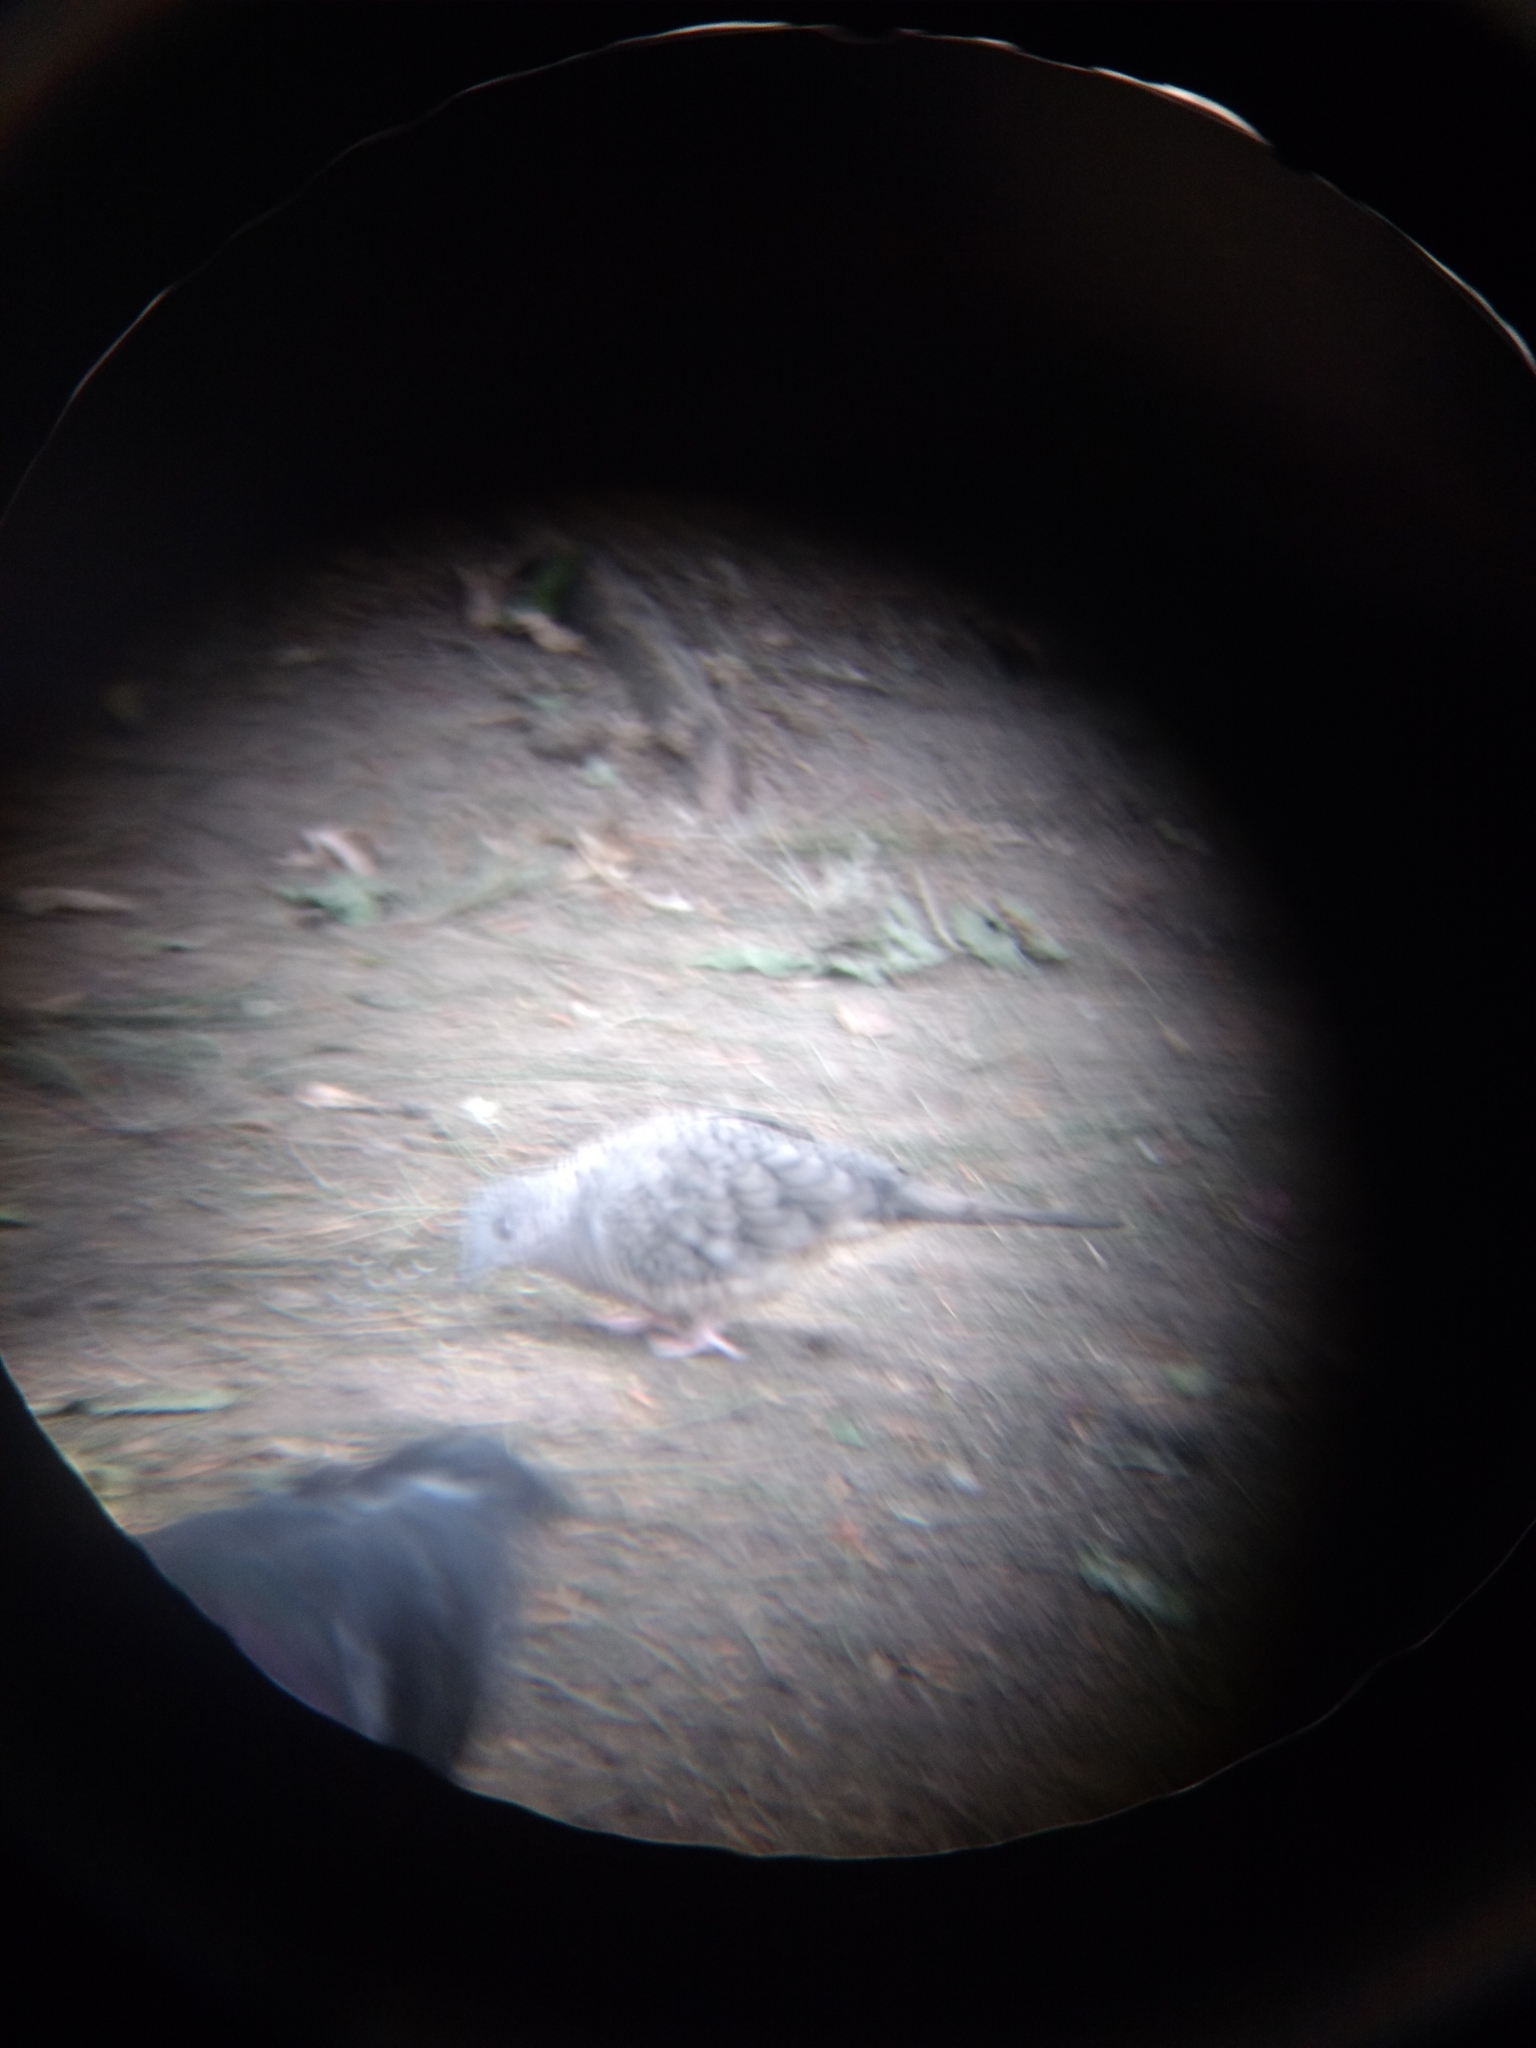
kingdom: Animalia
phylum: Chordata
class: Aves
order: Columbiformes
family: Columbidae
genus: Columbina
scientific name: Columbina inca
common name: Inca dove
